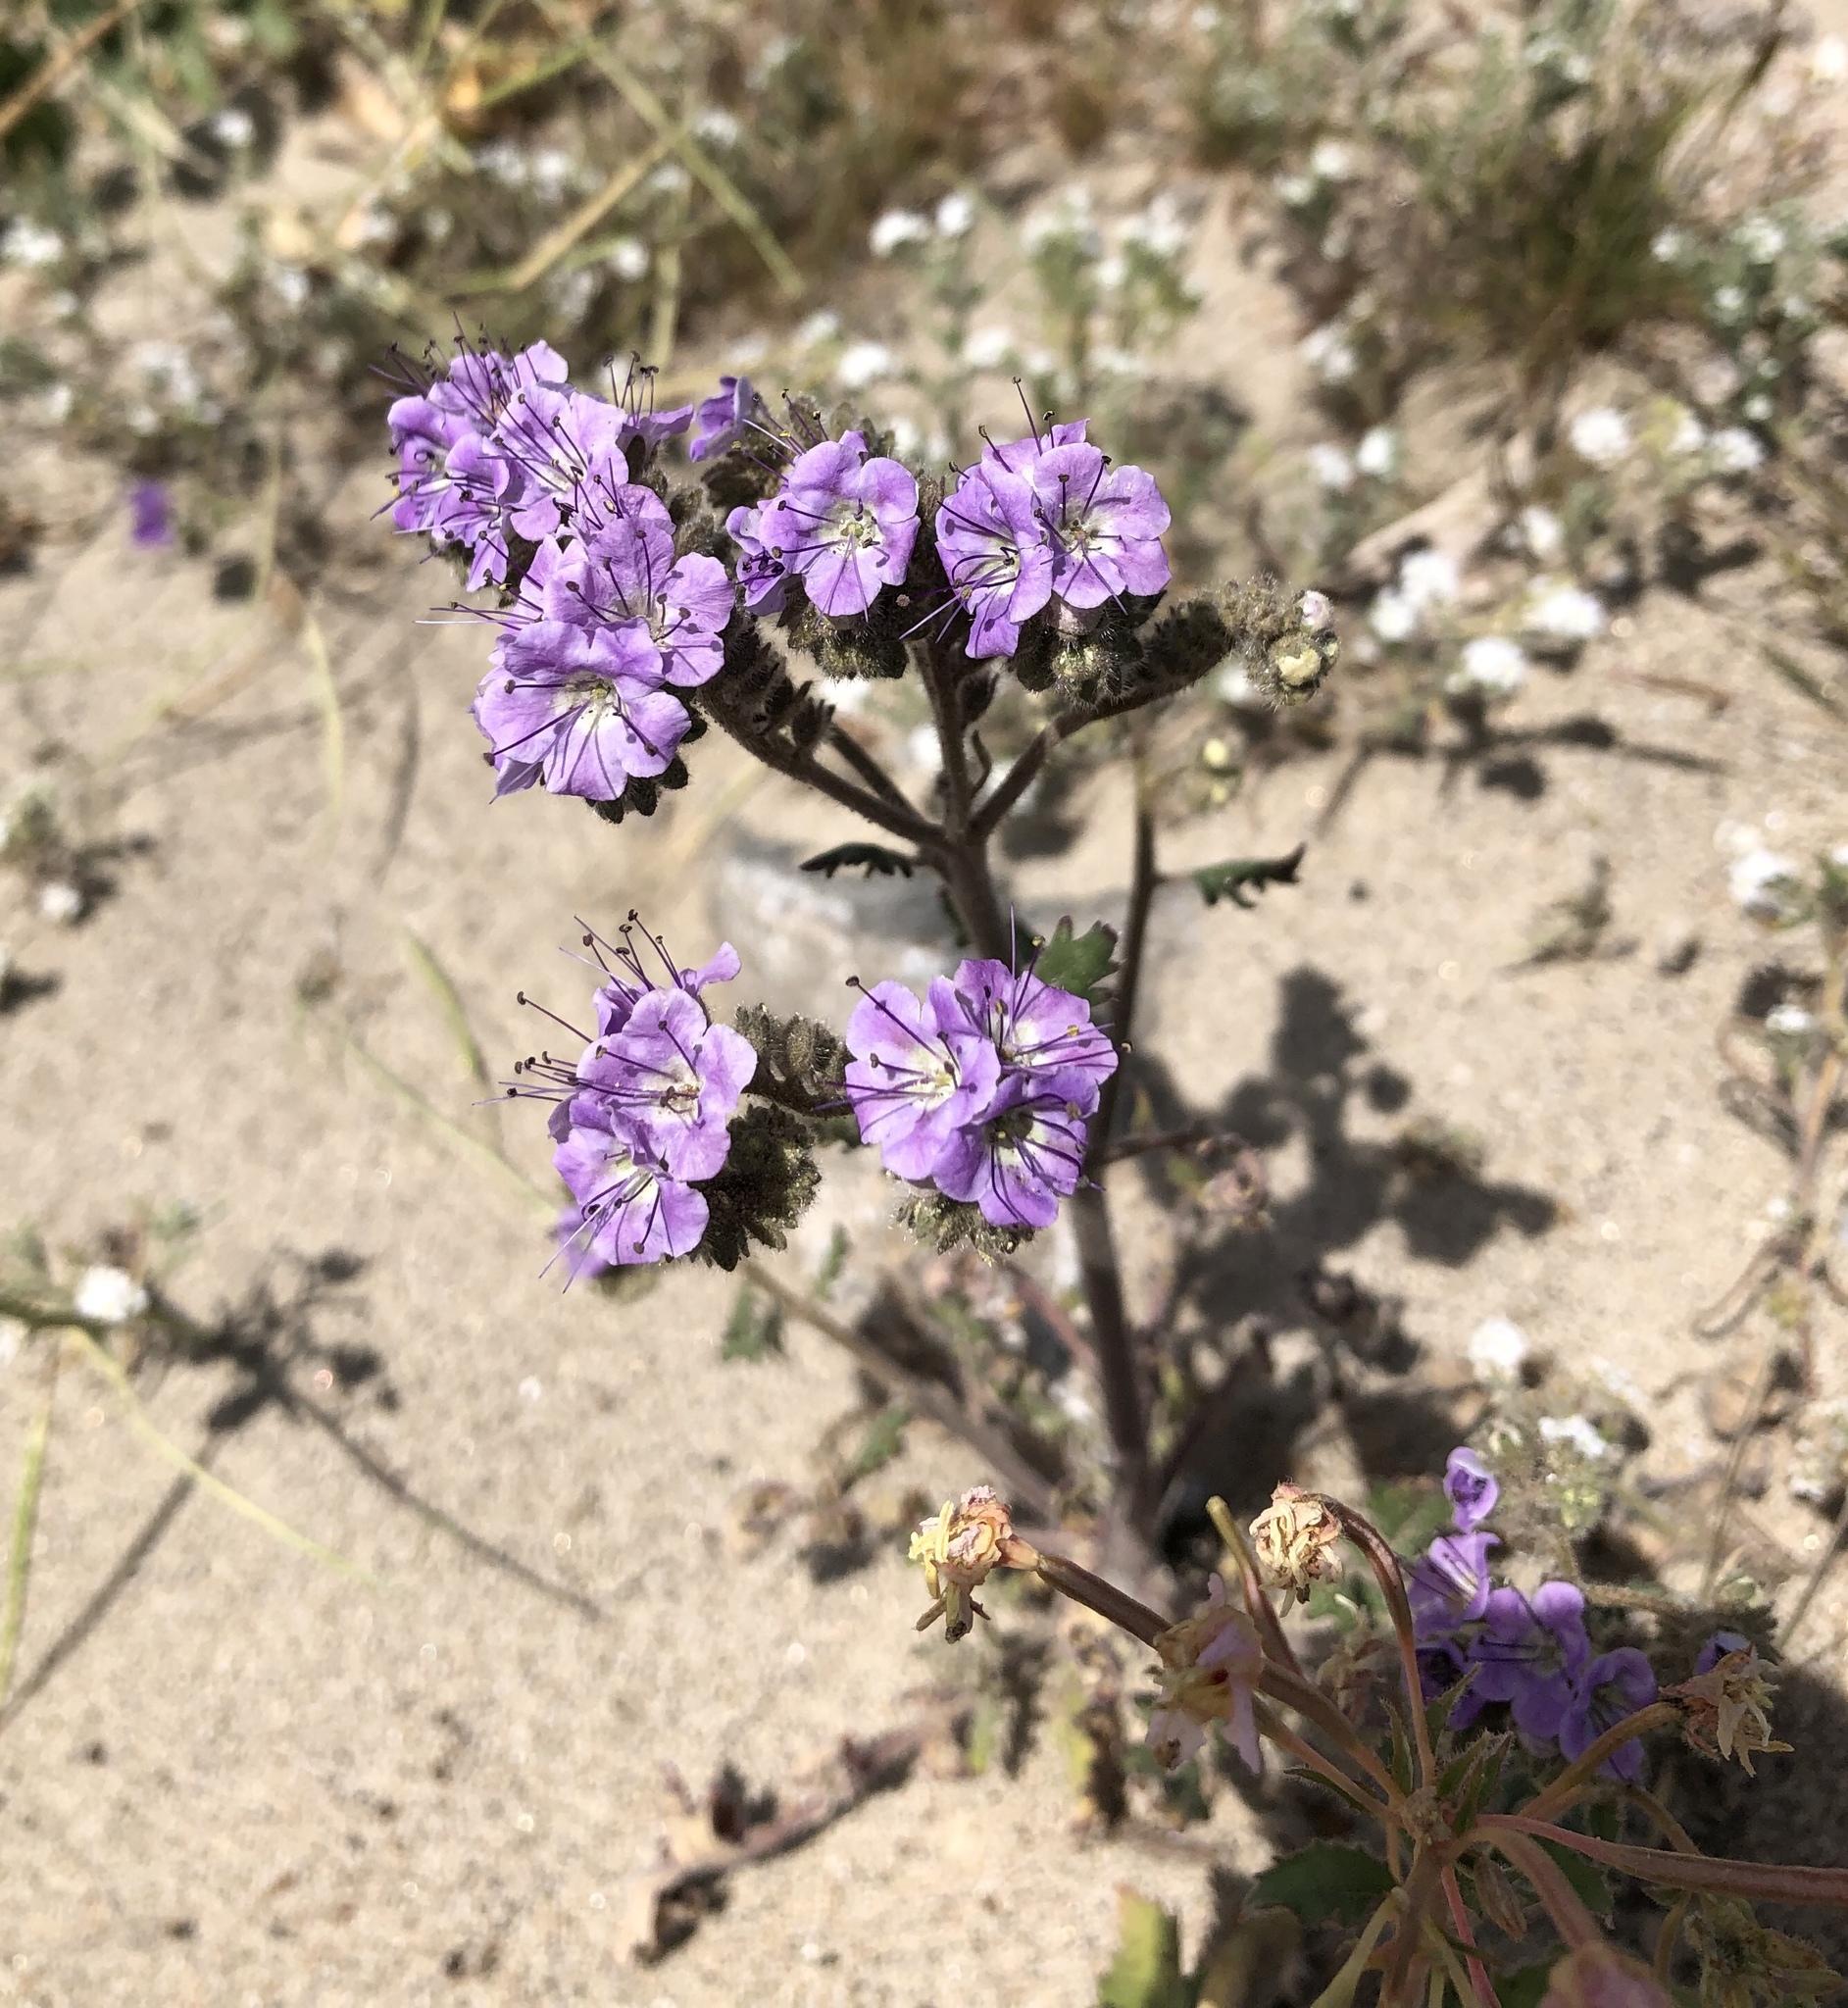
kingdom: Plantae
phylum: Tracheophyta
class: Magnoliopsida
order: Boraginales
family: Hydrophyllaceae
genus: Phacelia
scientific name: Phacelia crenulata
